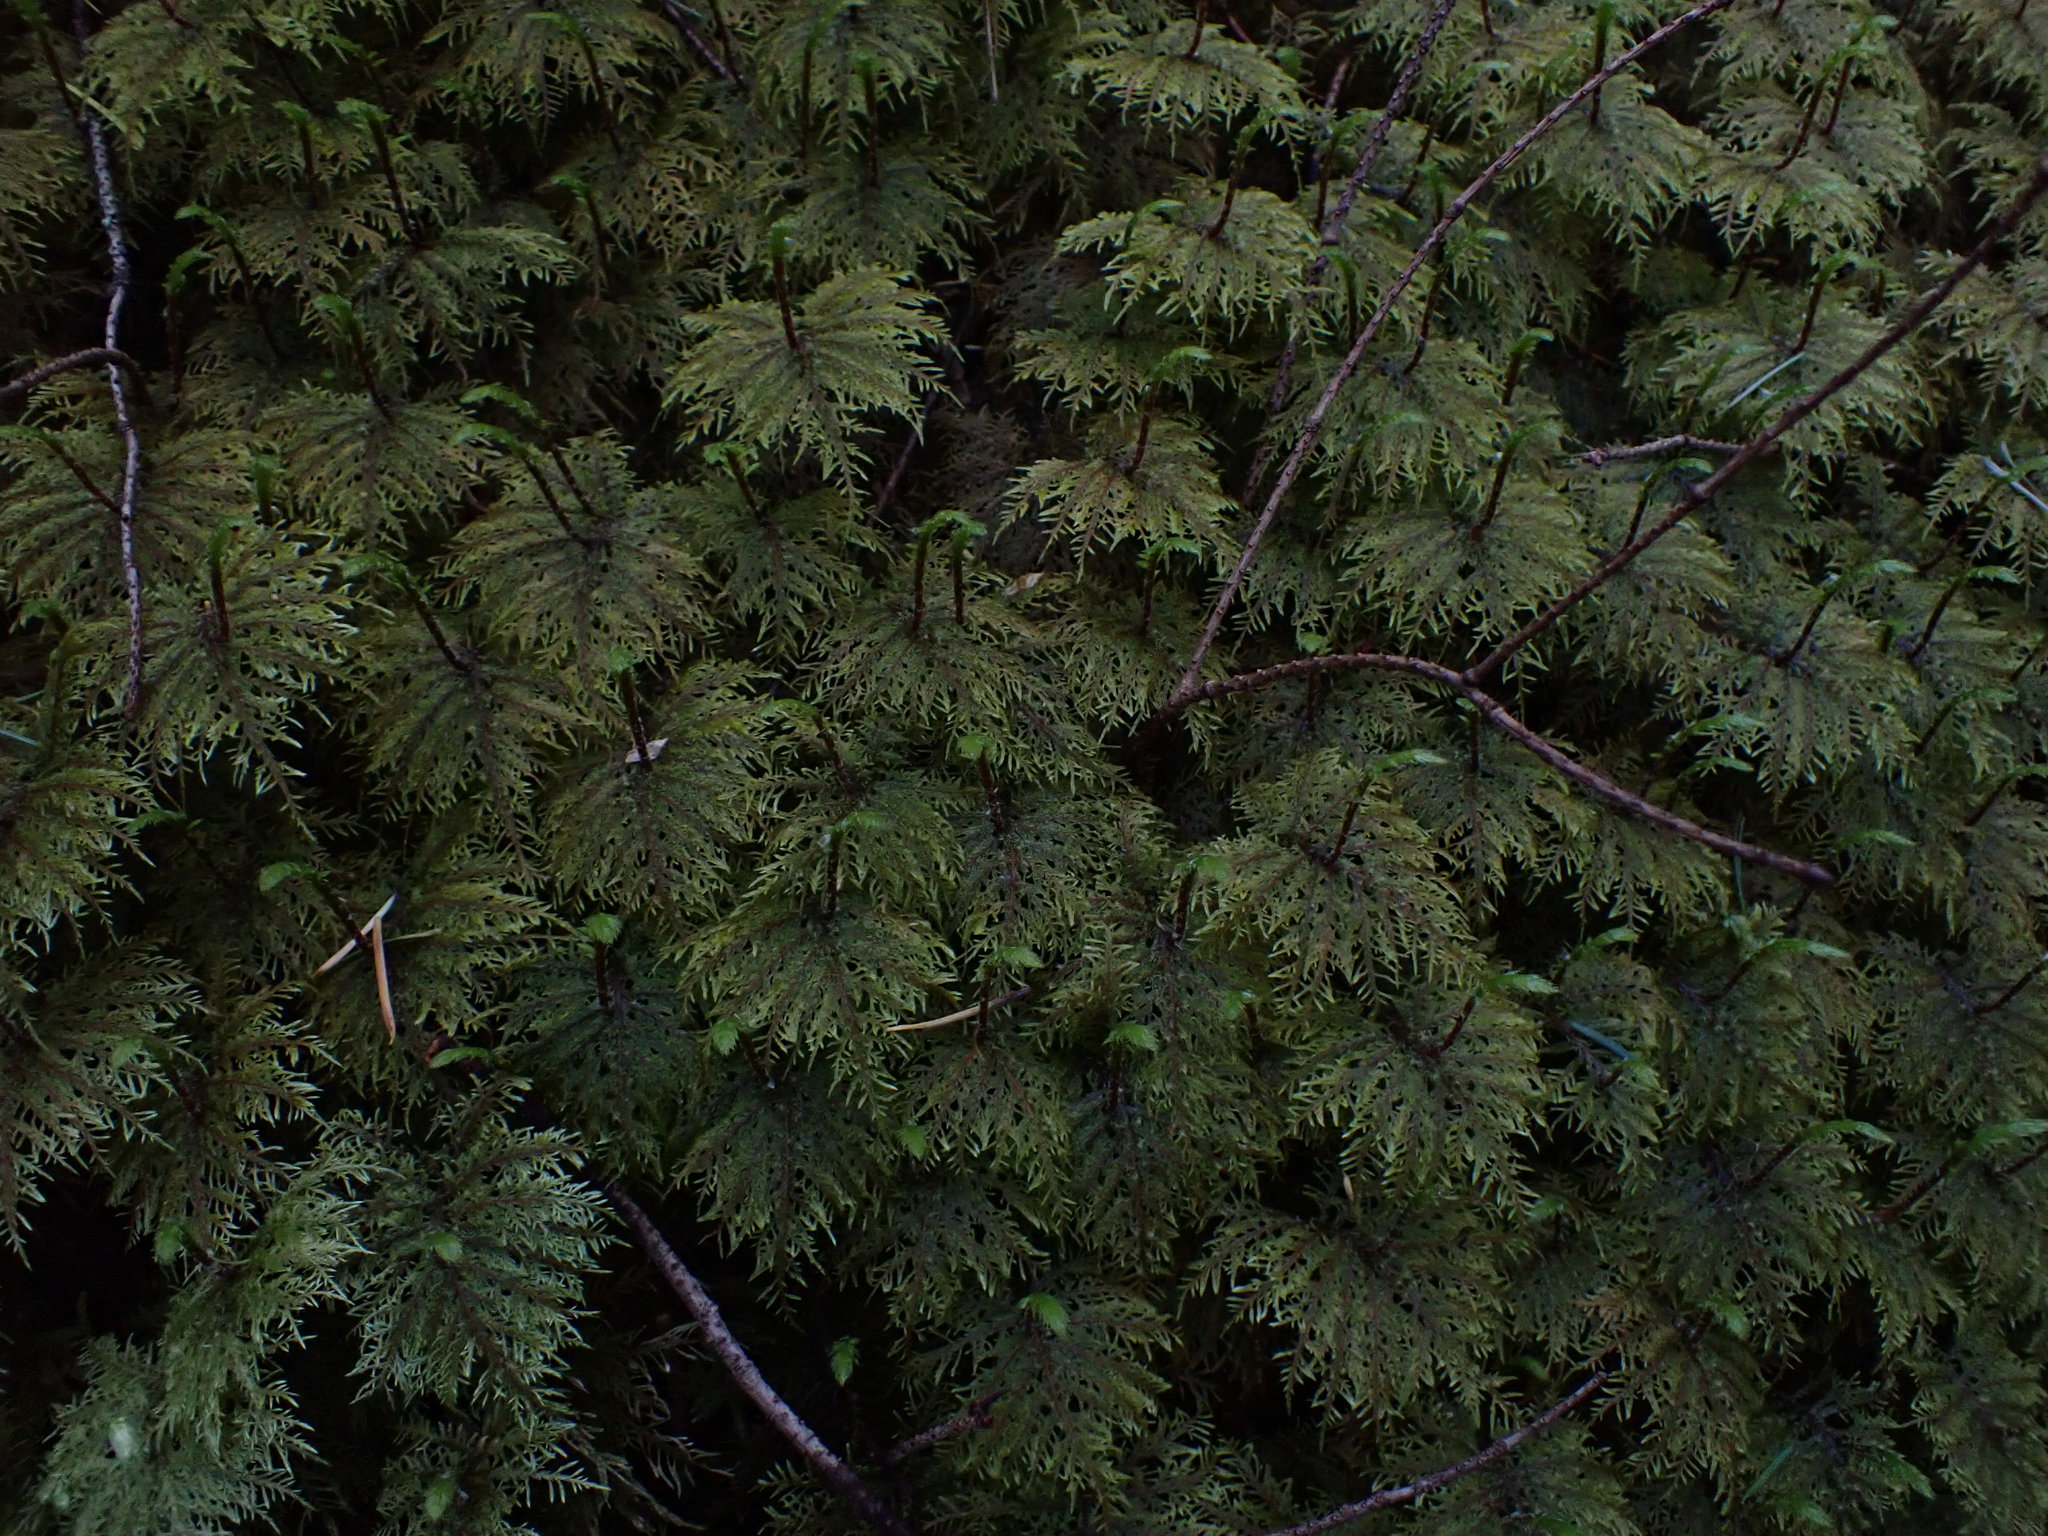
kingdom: Plantae
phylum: Bryophyta
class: Bryopsida
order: Hypnales
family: Hylocomiaceae
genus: Hylocomium
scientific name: Hylocomium splendens
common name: Stairstep moss
